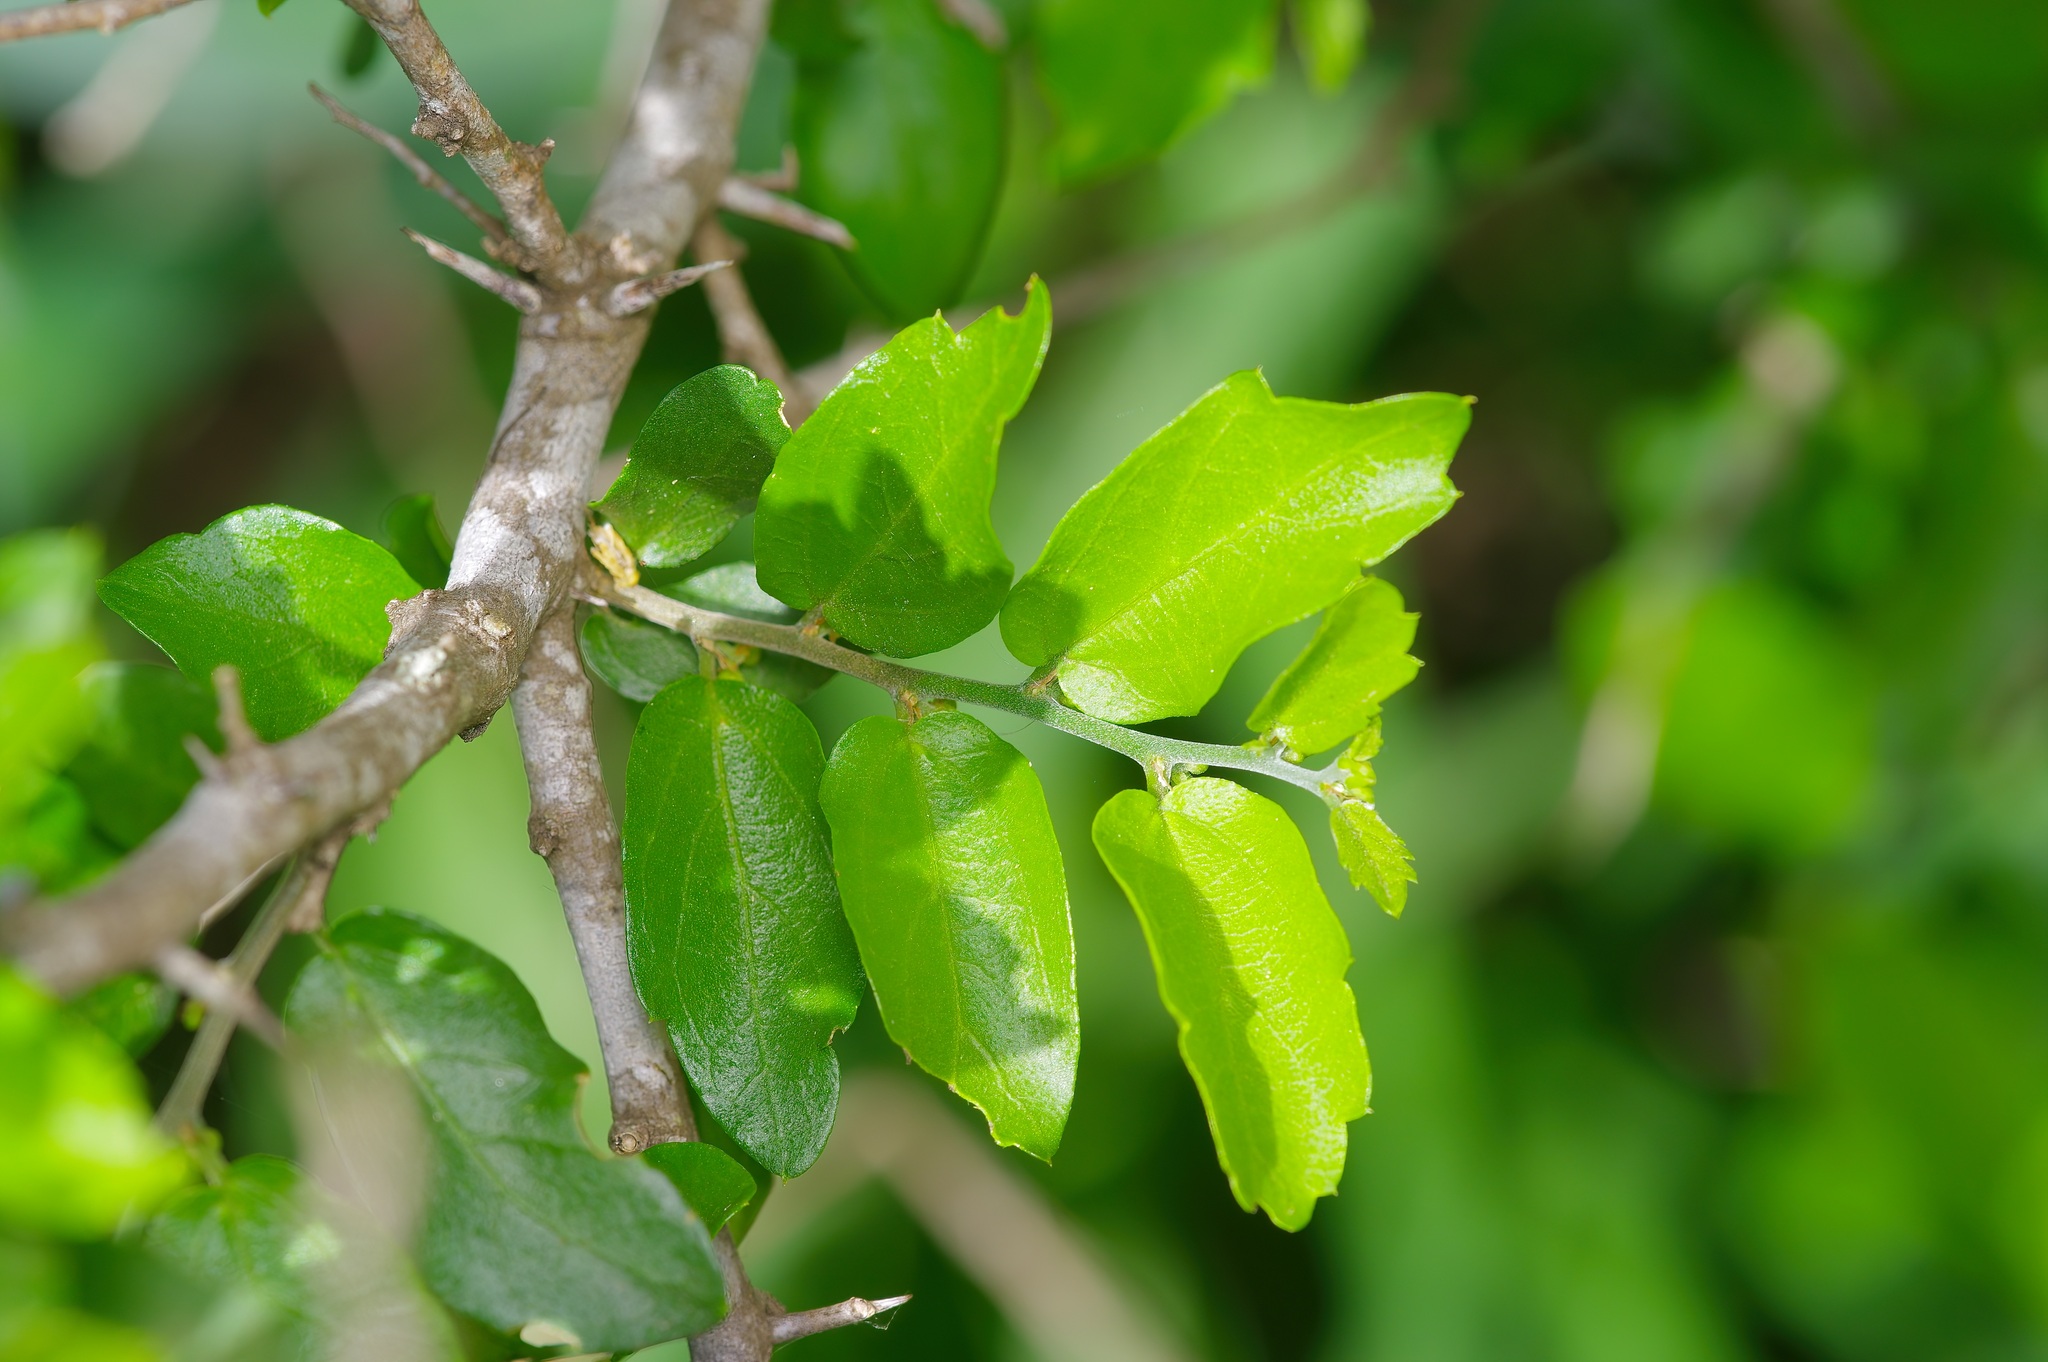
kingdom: Plantae
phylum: Tracheophyta
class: Magnoliopsida
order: Rosales
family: Cannabaceae
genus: Celtis
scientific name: Celtis pallida
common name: Desert hackberry
